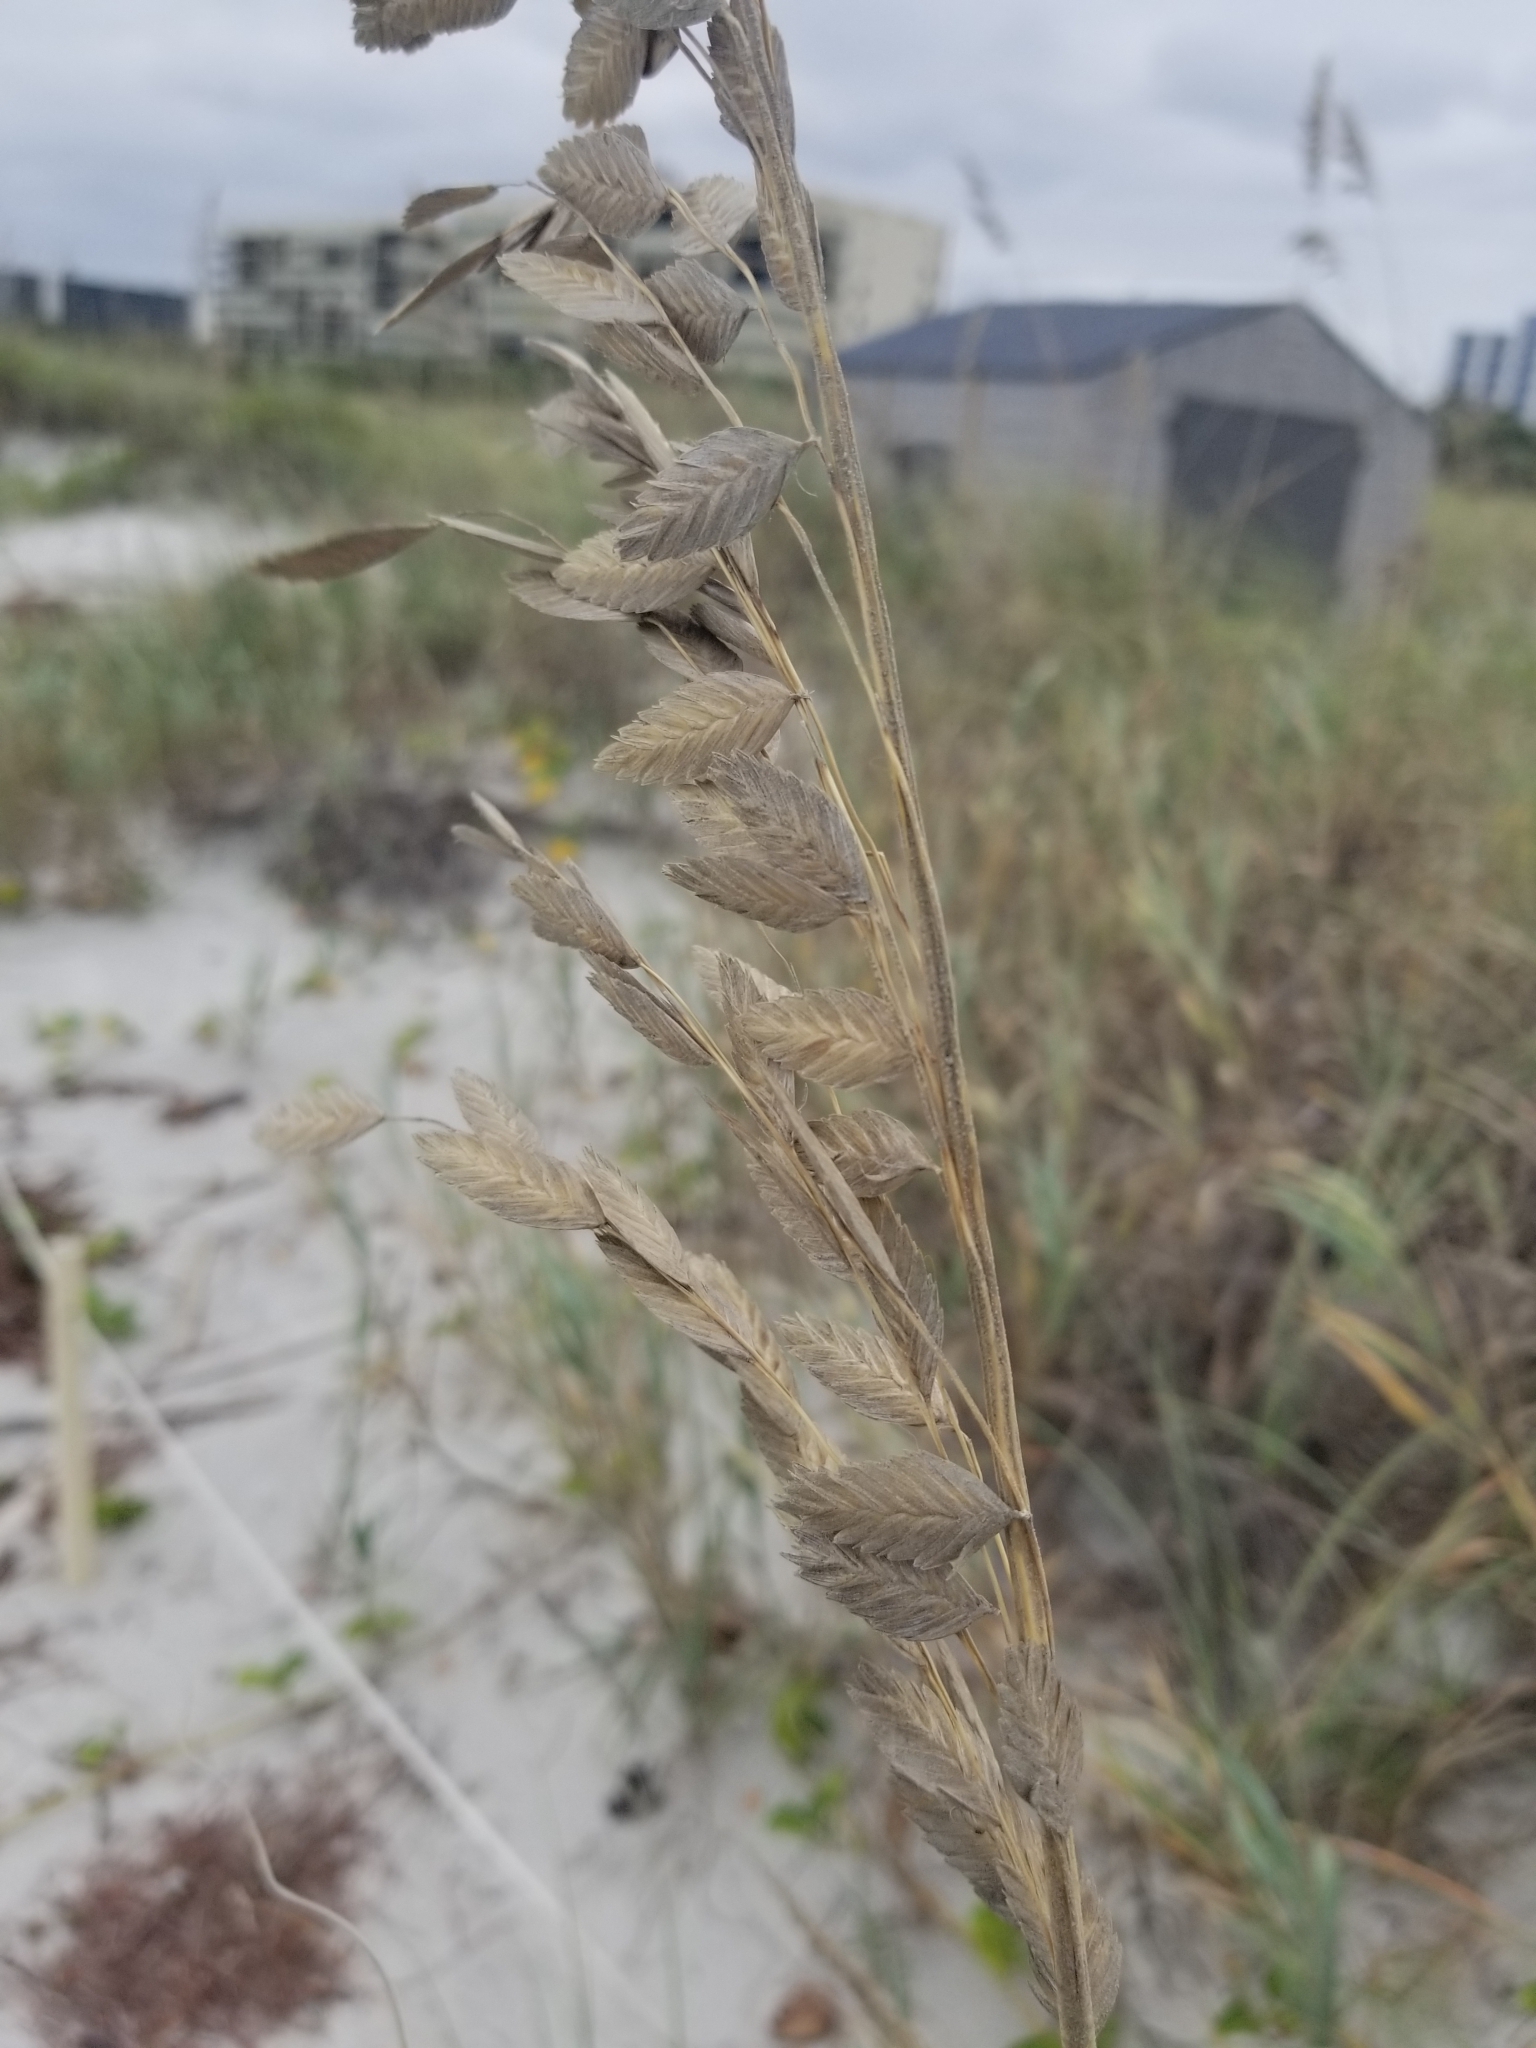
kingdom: Plantae
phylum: Tracheophyta
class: Liliopsida
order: Poales
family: Poaceae
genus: Uniola
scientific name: Uniola paniculata
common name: Seaside-oats
